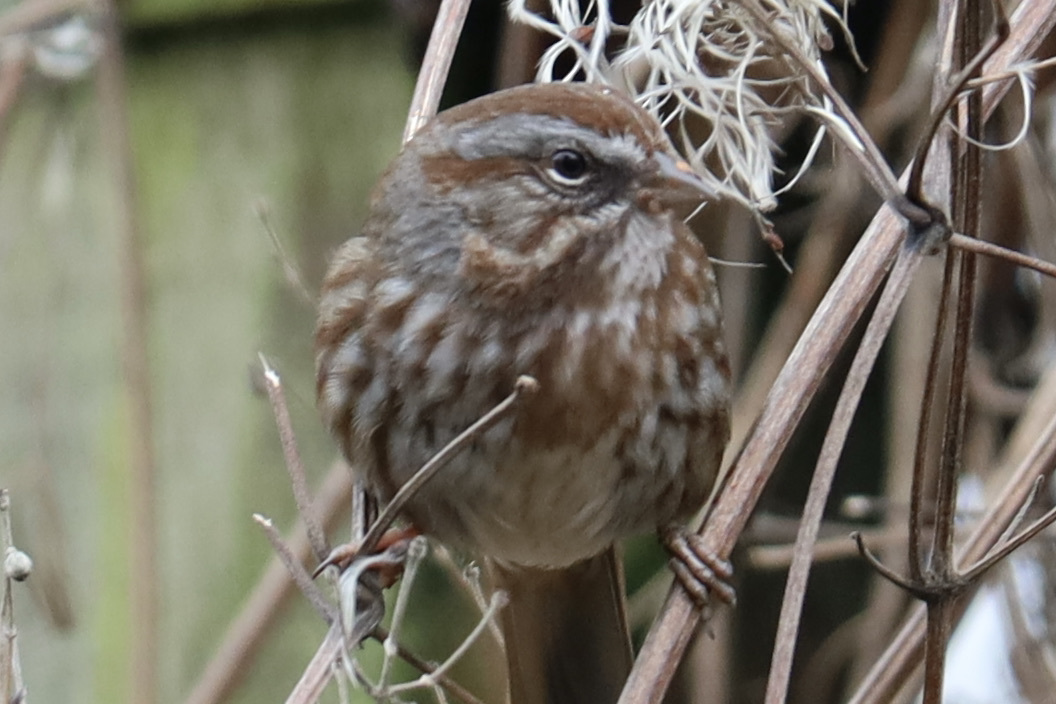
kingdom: Animalia
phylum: Chordata
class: Aves
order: Passeriformes
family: Passerellidae
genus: Melospiza
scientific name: Melospiza melodia
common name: Song sparrow
